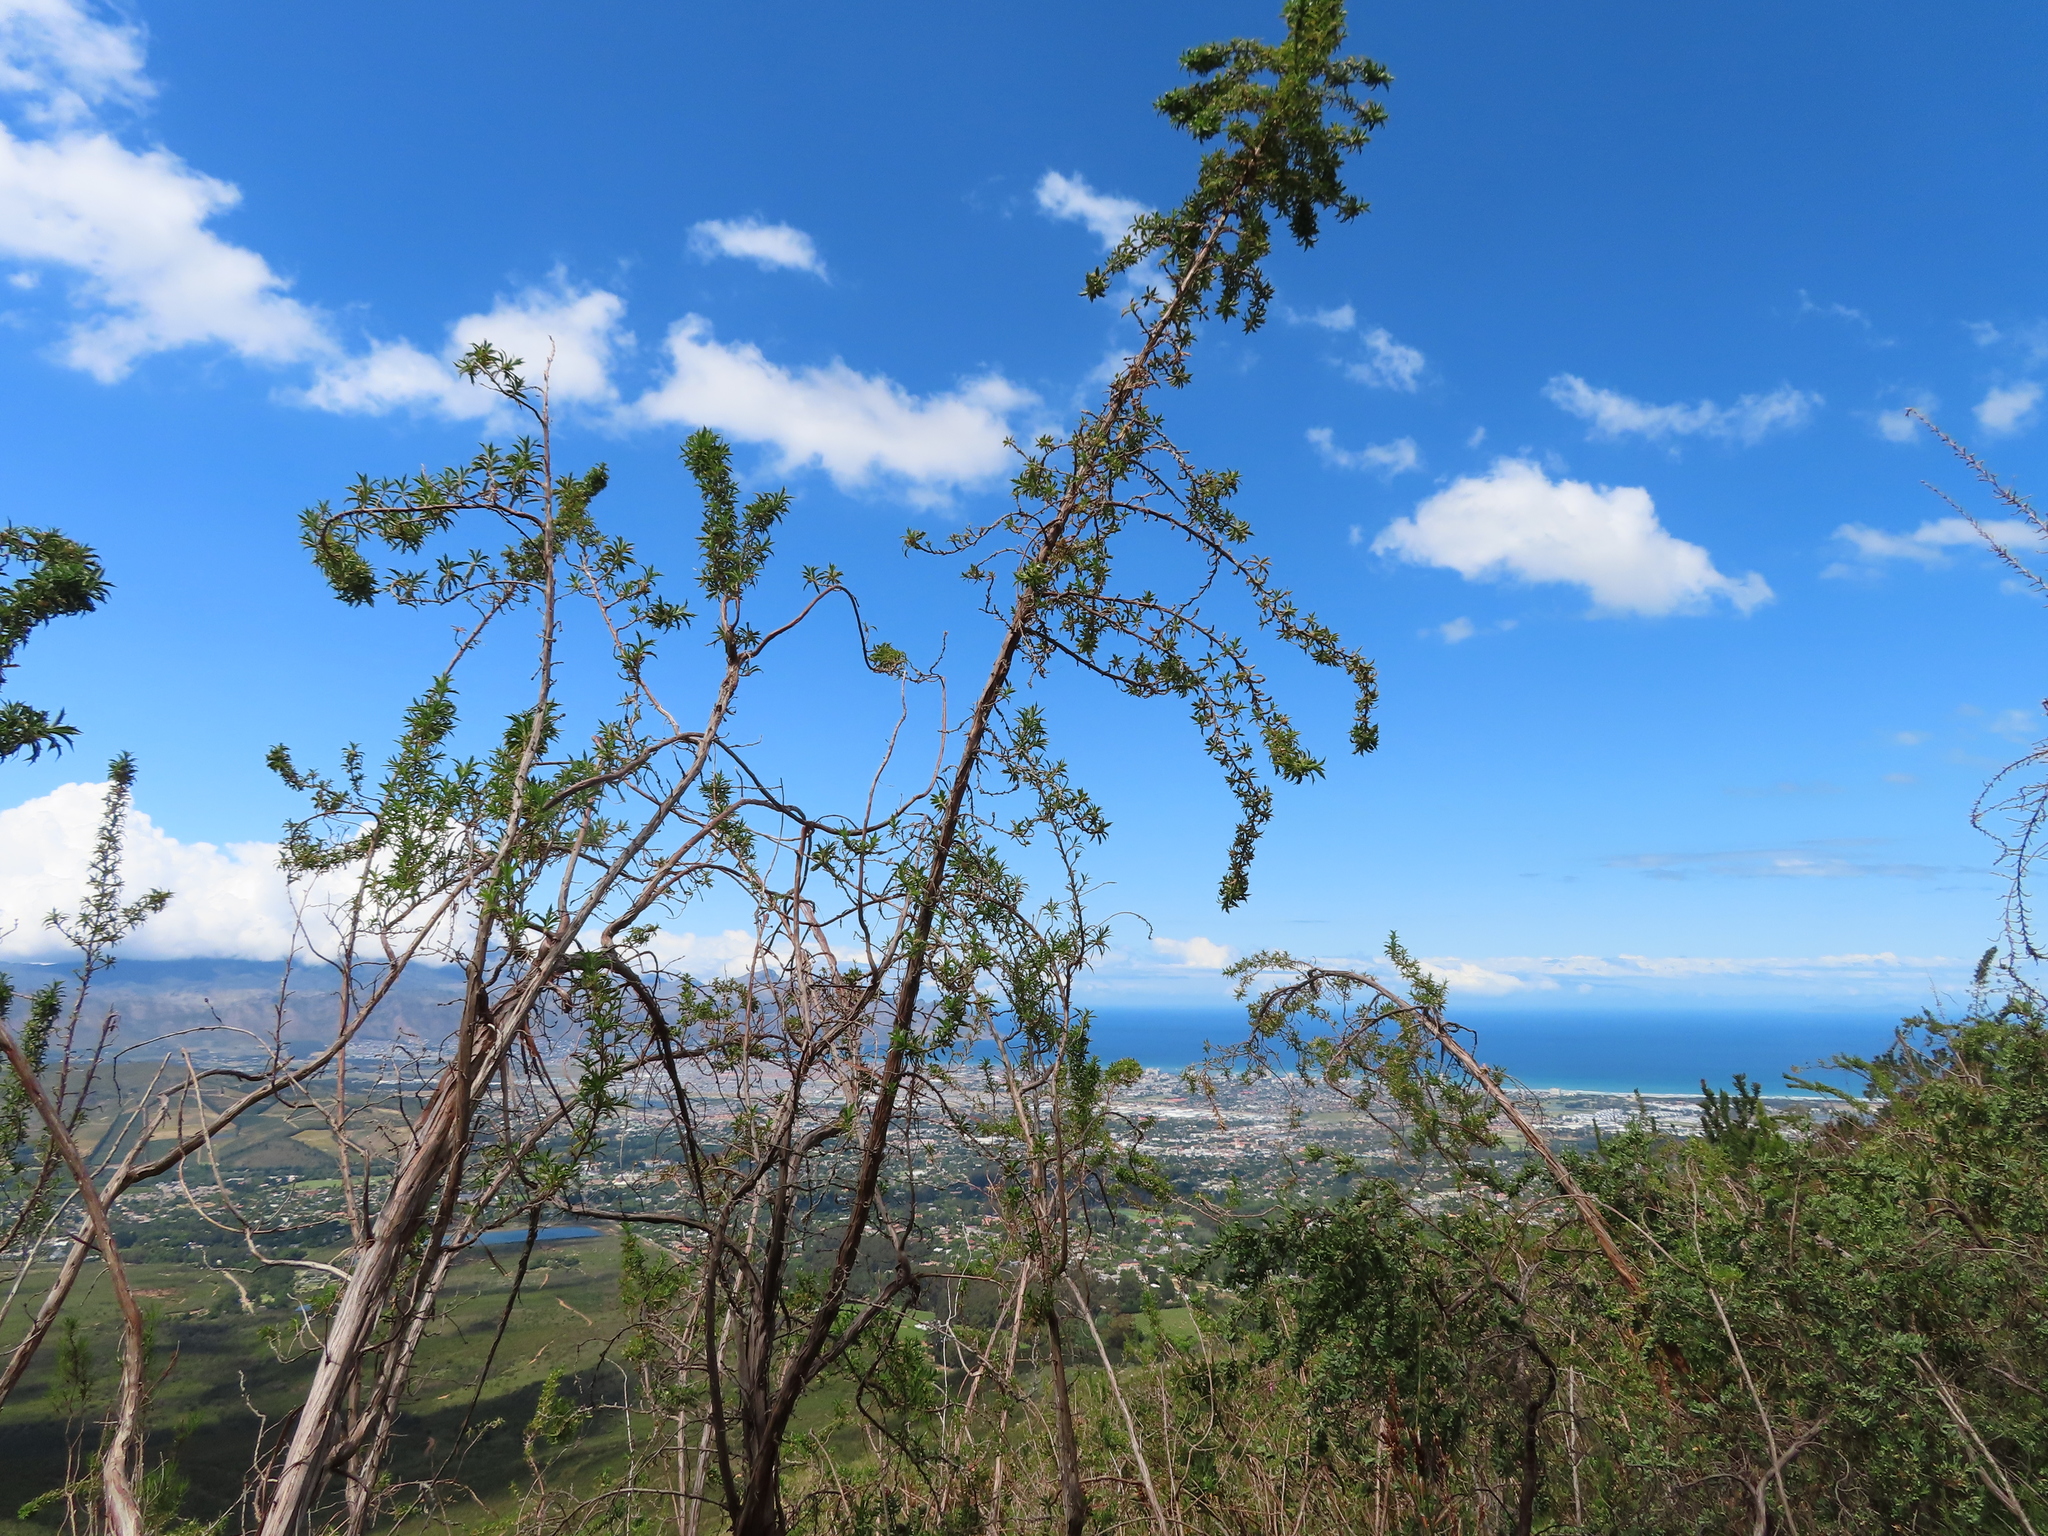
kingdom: Plantae
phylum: Tracheophyta
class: Magnoliopsida
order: Rosales
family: Rosaceae
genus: Cliffortia
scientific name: Cliffortia phillipsii
